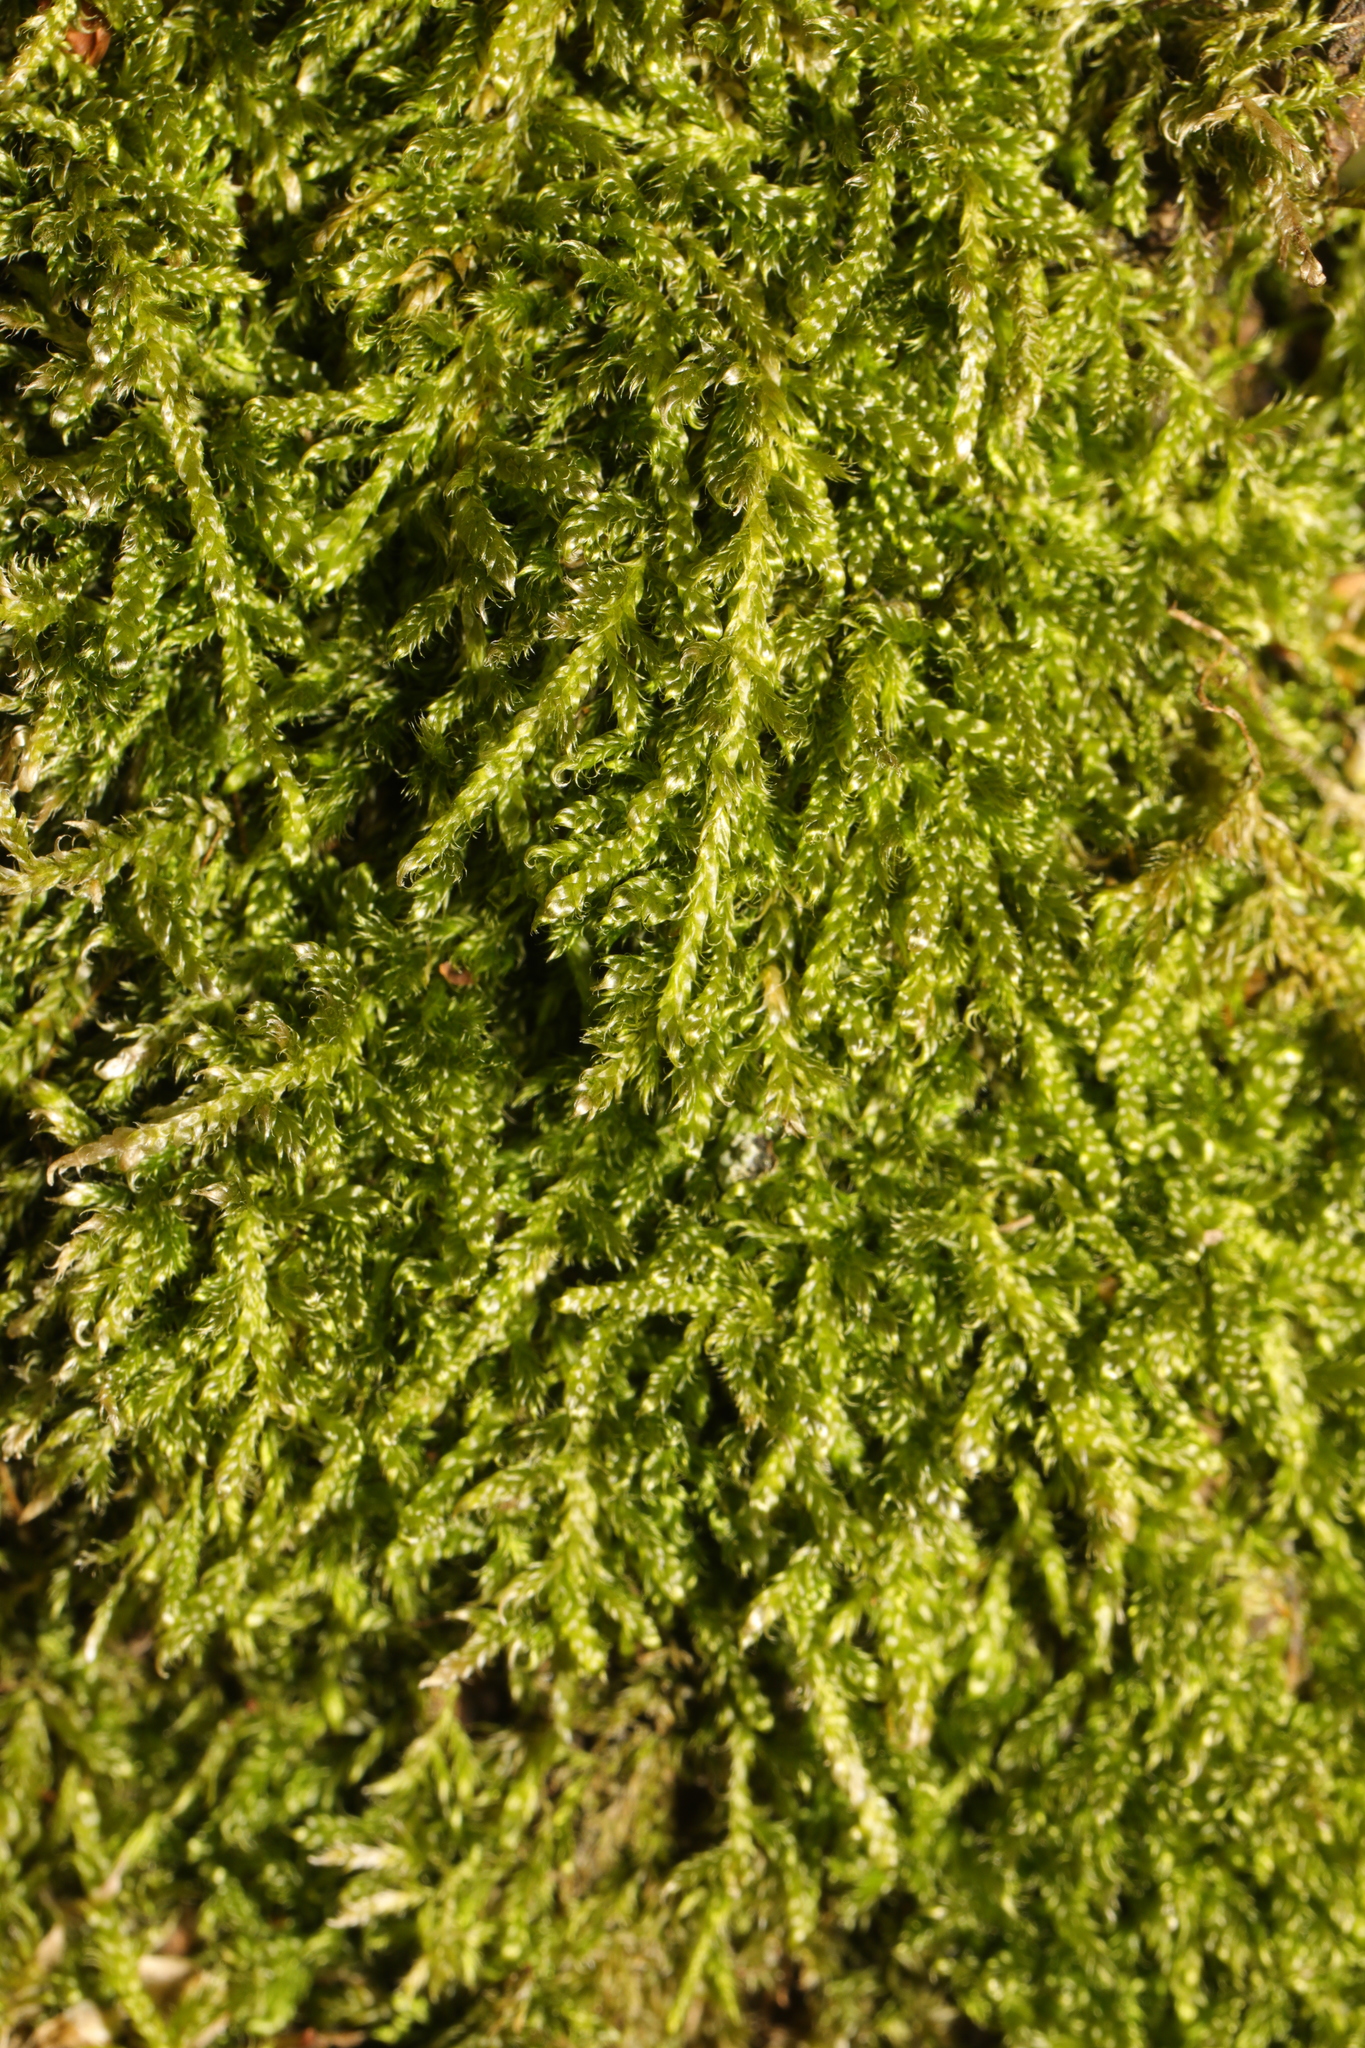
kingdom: Plantae
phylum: Bryophyta
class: Bryopsida
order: Hypnales
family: Hypnaceae
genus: Hypnum
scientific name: Hypnum cupressiforme
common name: Cypress-leaved plait-moss
